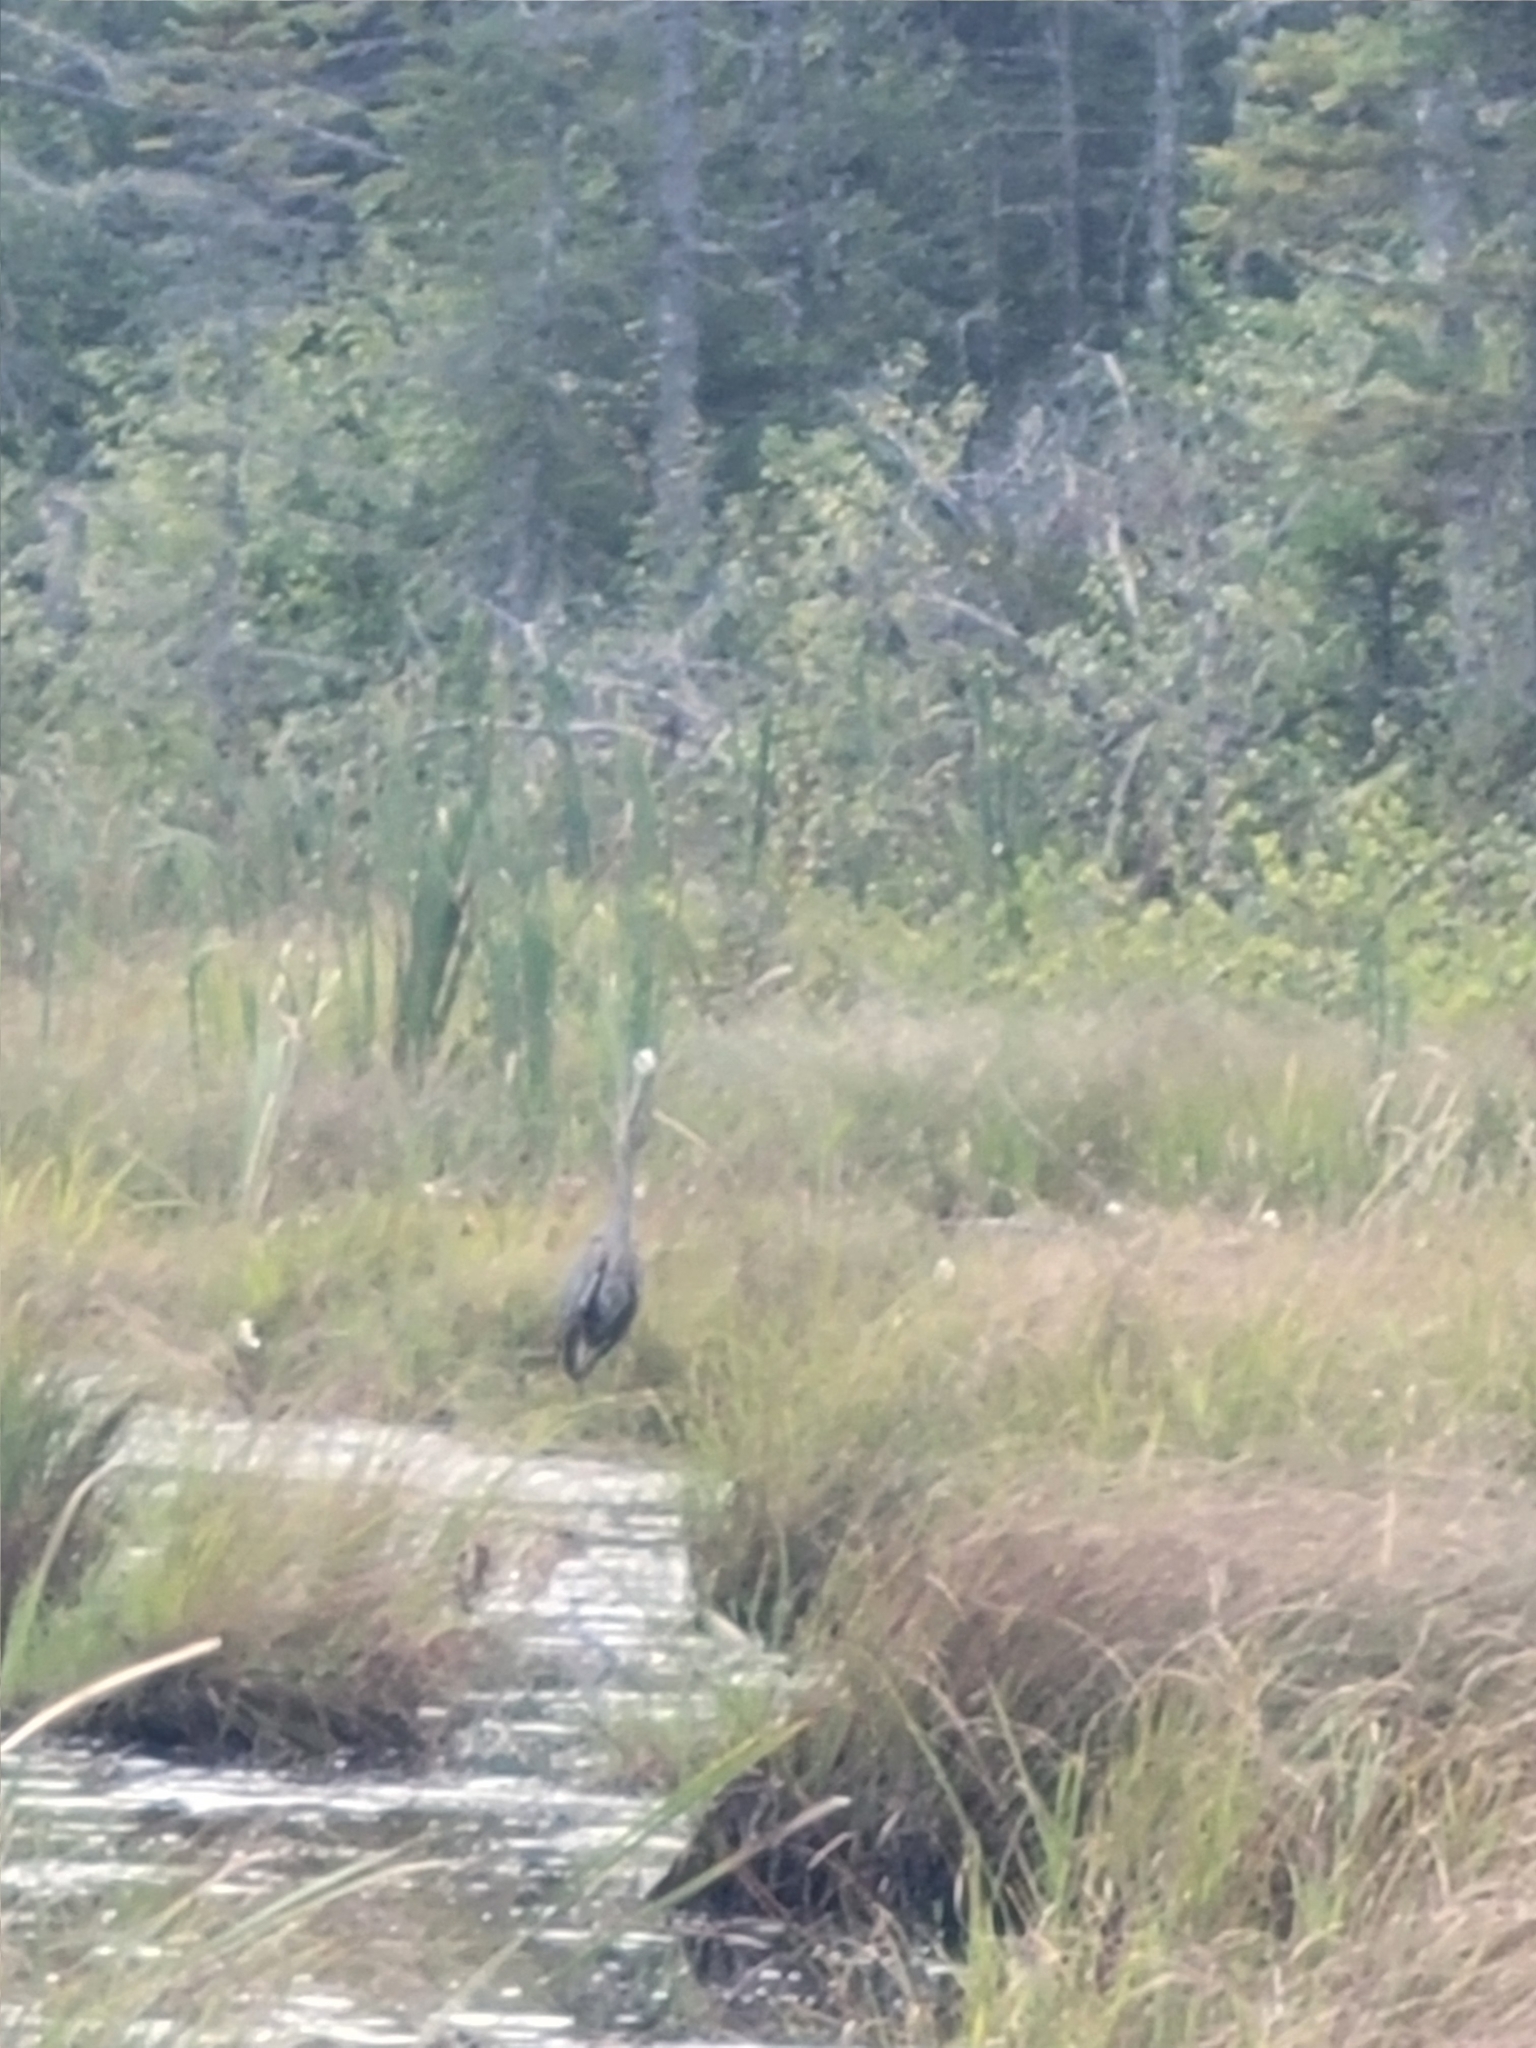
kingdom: Animalia
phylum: Chordata
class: Aves
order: Pelecaniformes
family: Ardeidae
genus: Ardea
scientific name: Ardea herodias
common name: Great blue heron
